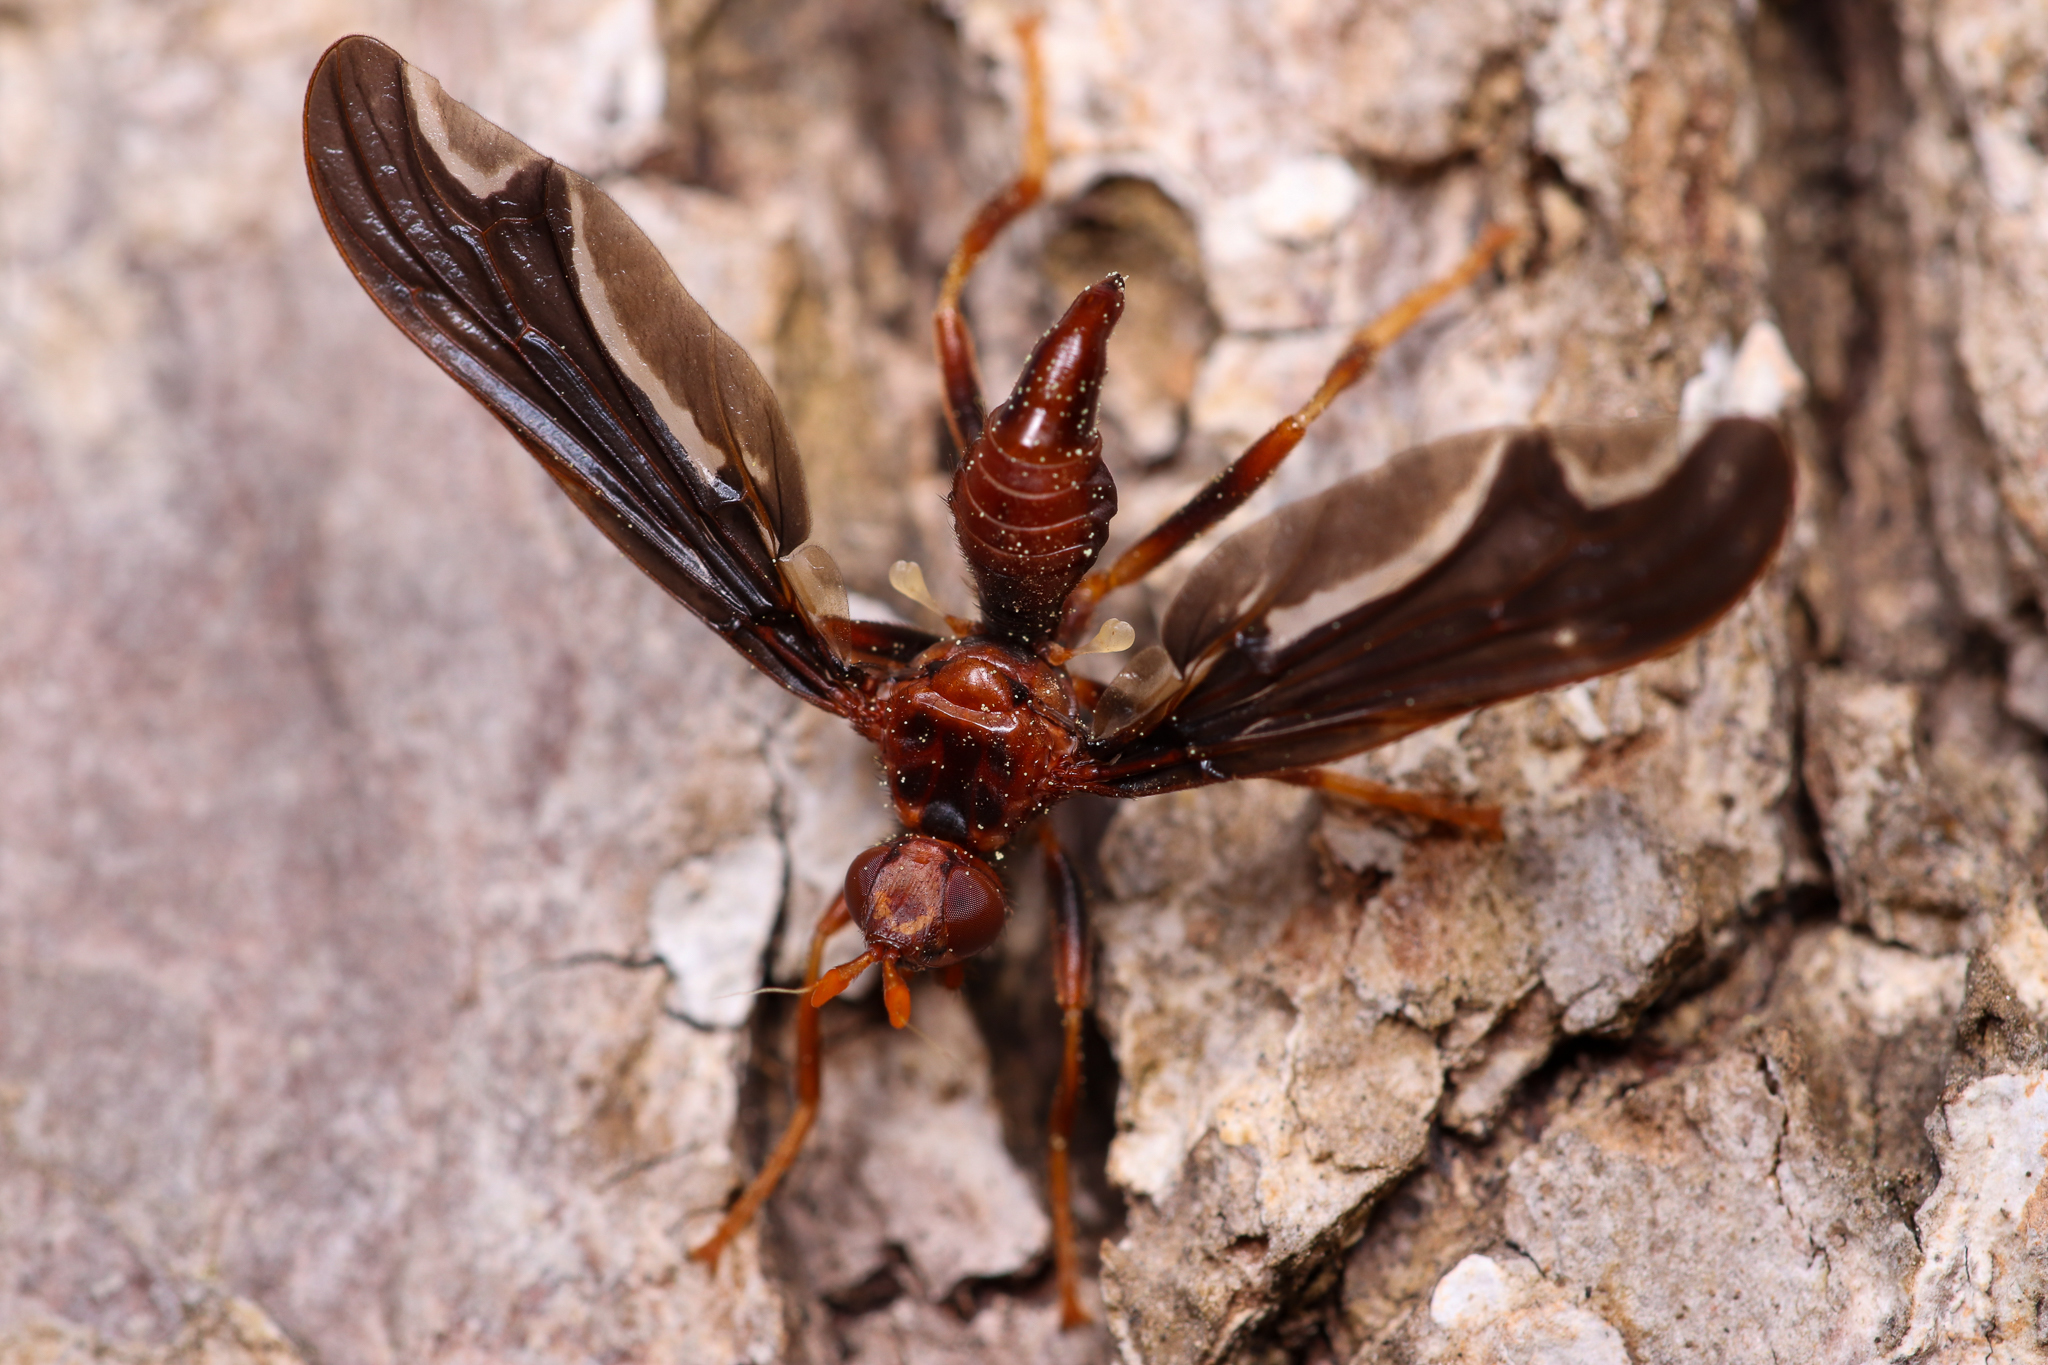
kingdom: Animalia
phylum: Arthropoda
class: Insecta
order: Diptera
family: Pyrgotidae
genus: Pyrgota
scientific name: Pyrgota undata
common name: Waved light fly
